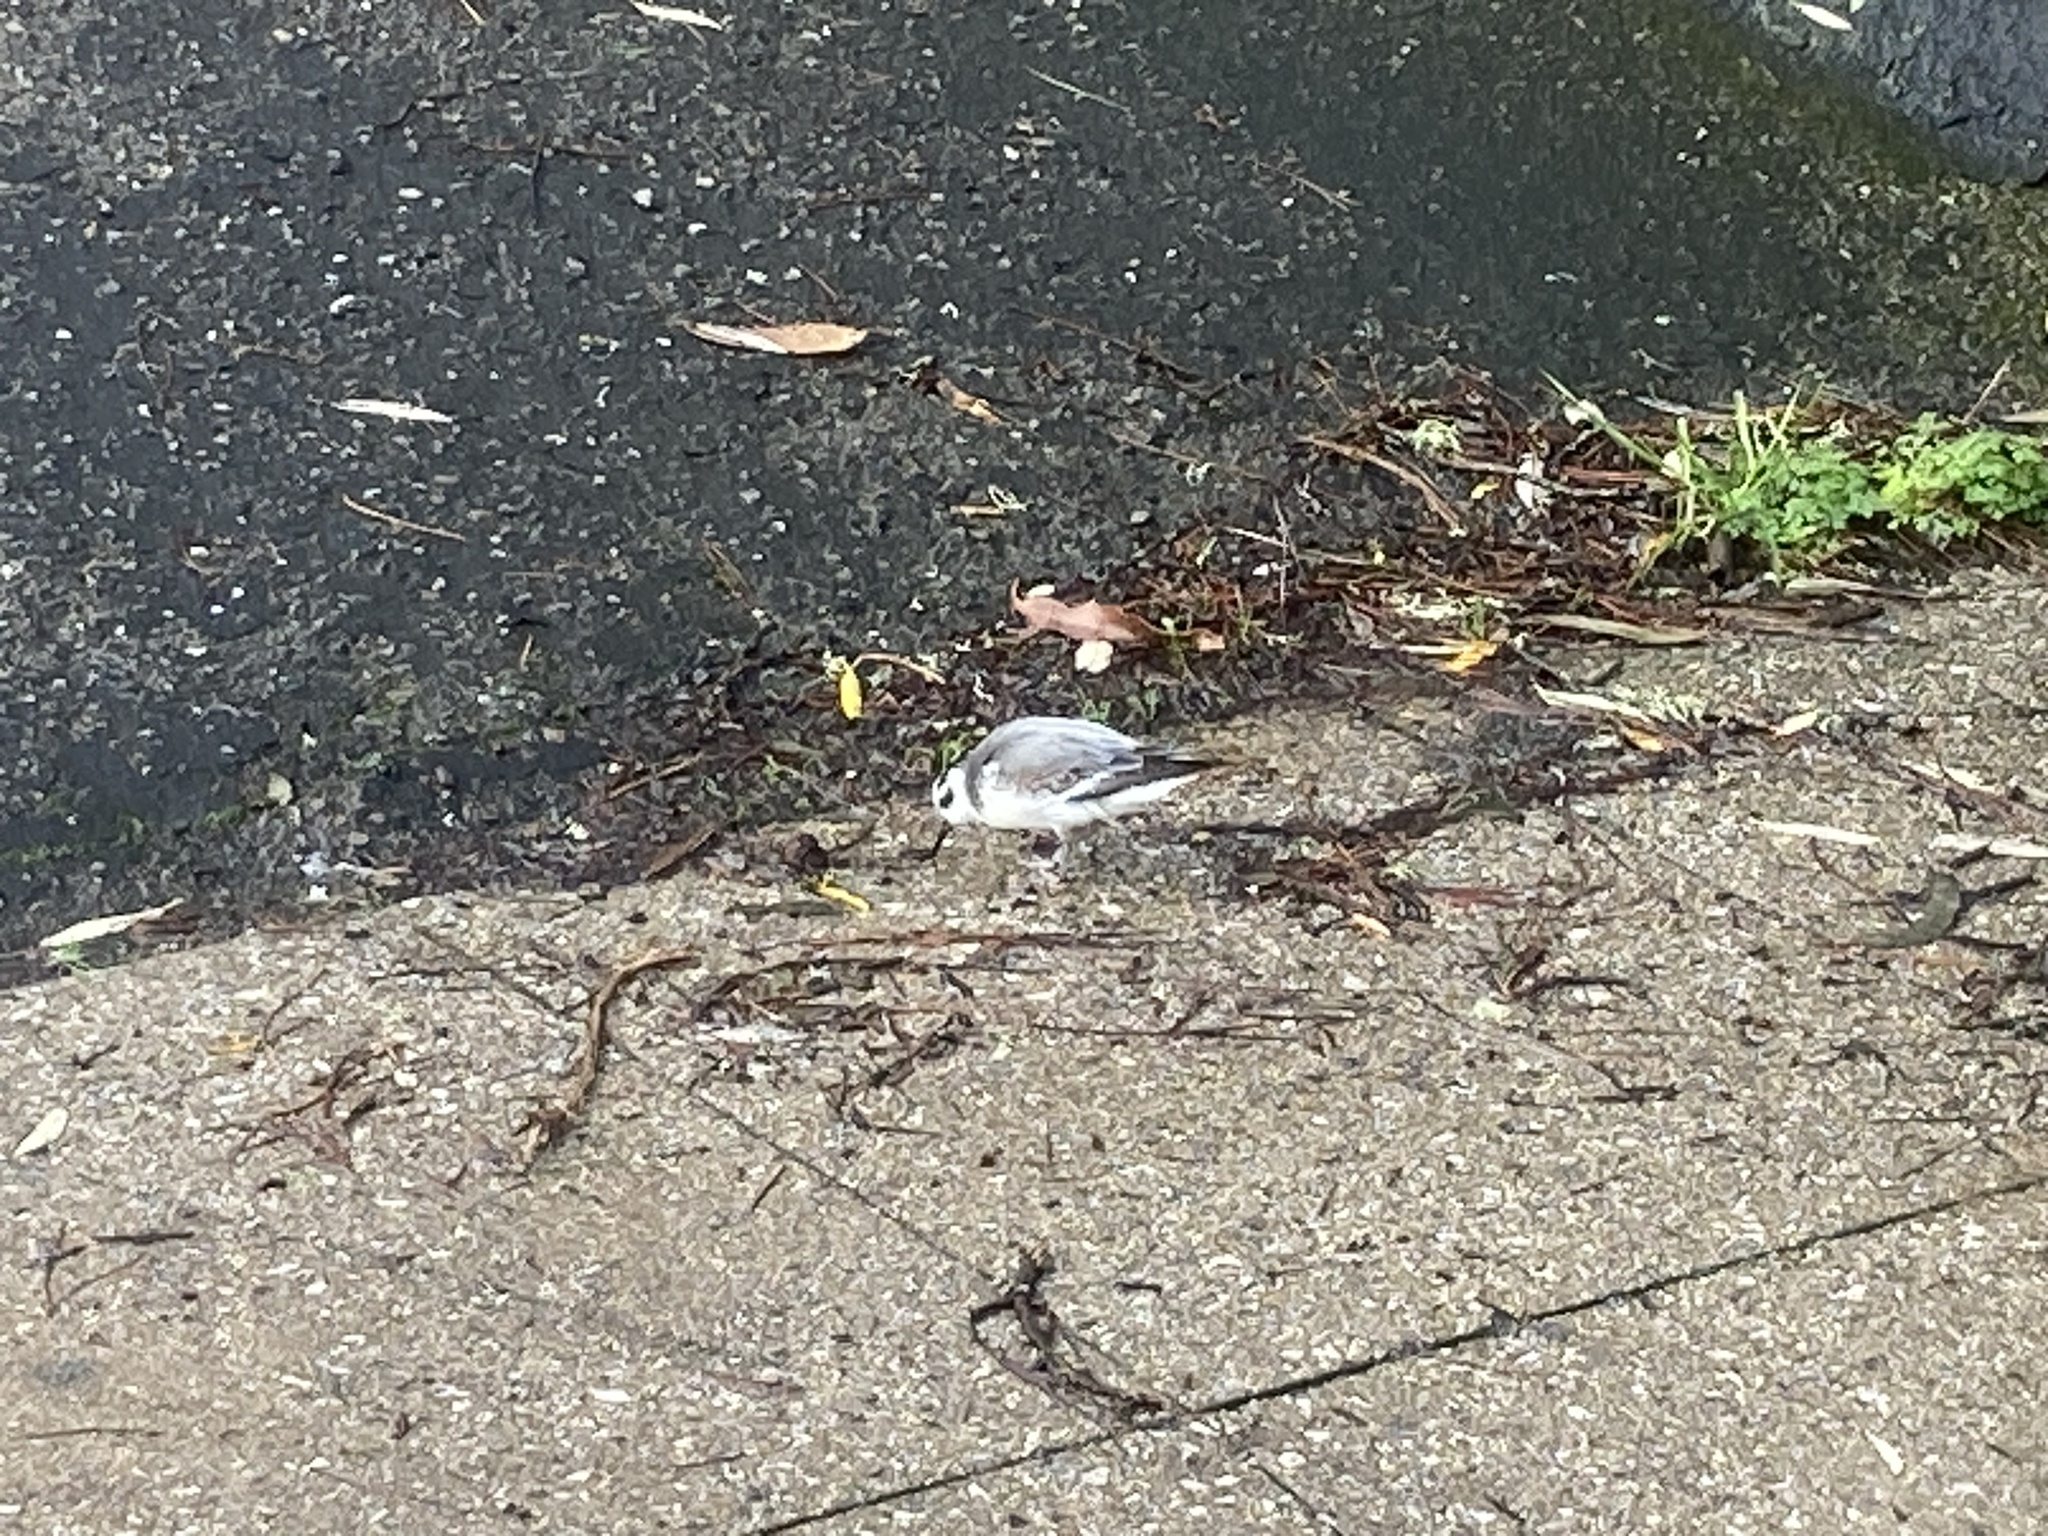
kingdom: Animalia
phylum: Chordata
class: Aves
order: Charadriiformes
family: Scolopacidae
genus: Phalaropus
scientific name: Phalaropus fulicarius
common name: Red phalarope
